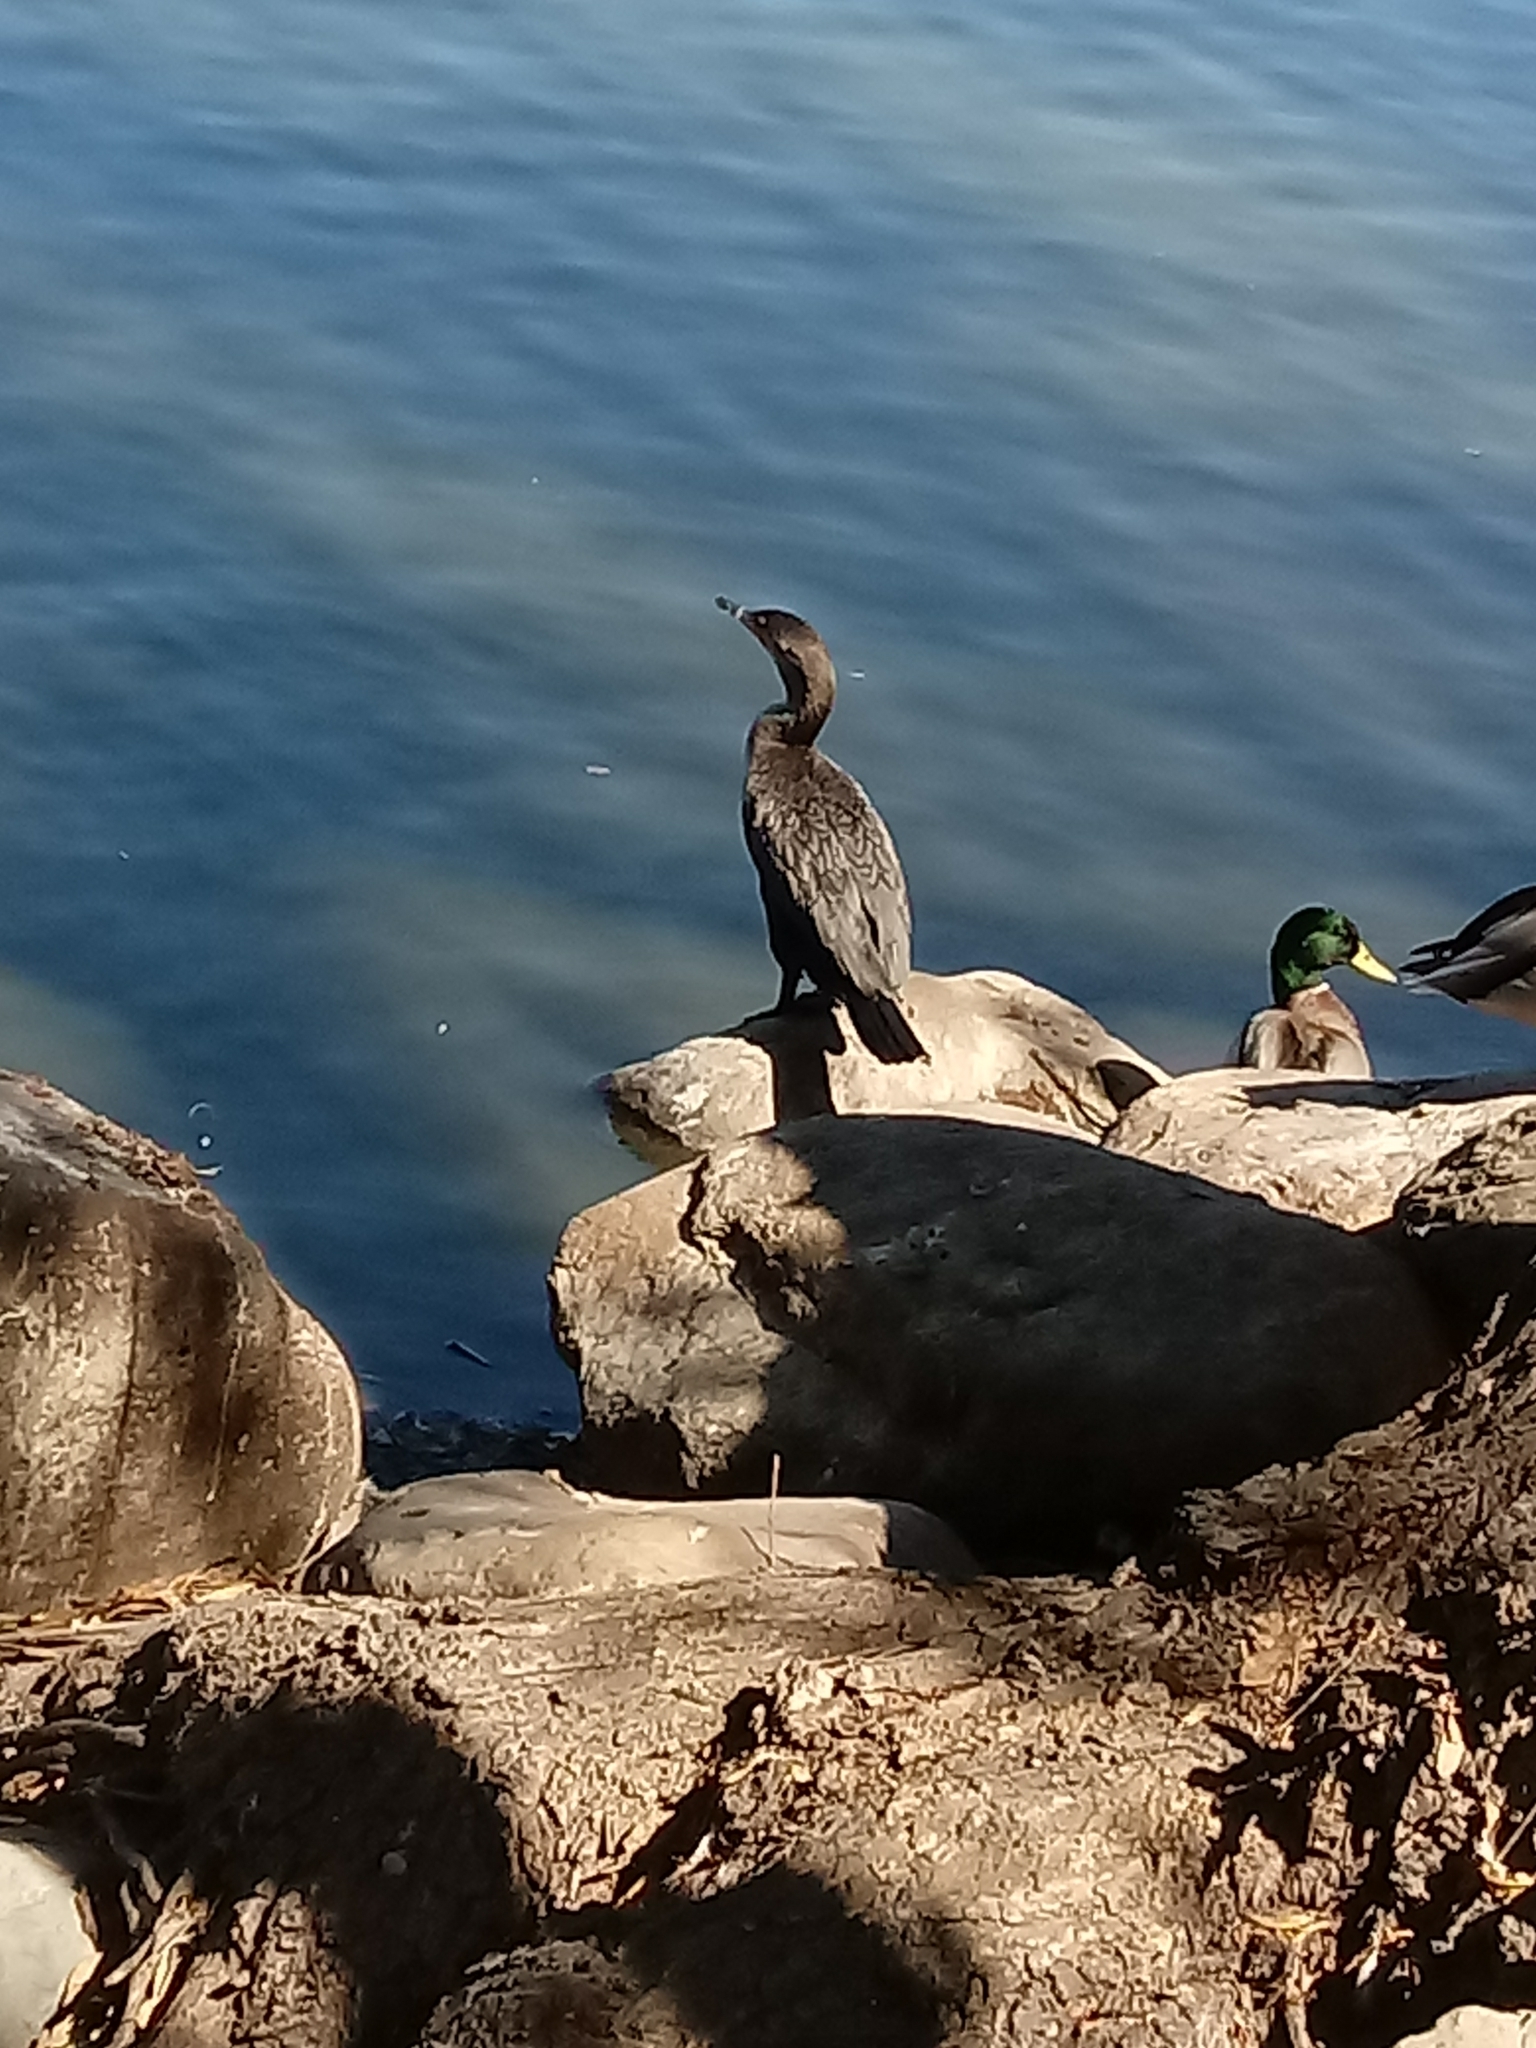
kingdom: Animalia
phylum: Chordata
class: Aves
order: Suliformes
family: Phalacrocoracidae
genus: Phalacrocorax
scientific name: Phalacrocorax auritus
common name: Double-crested cormorant
